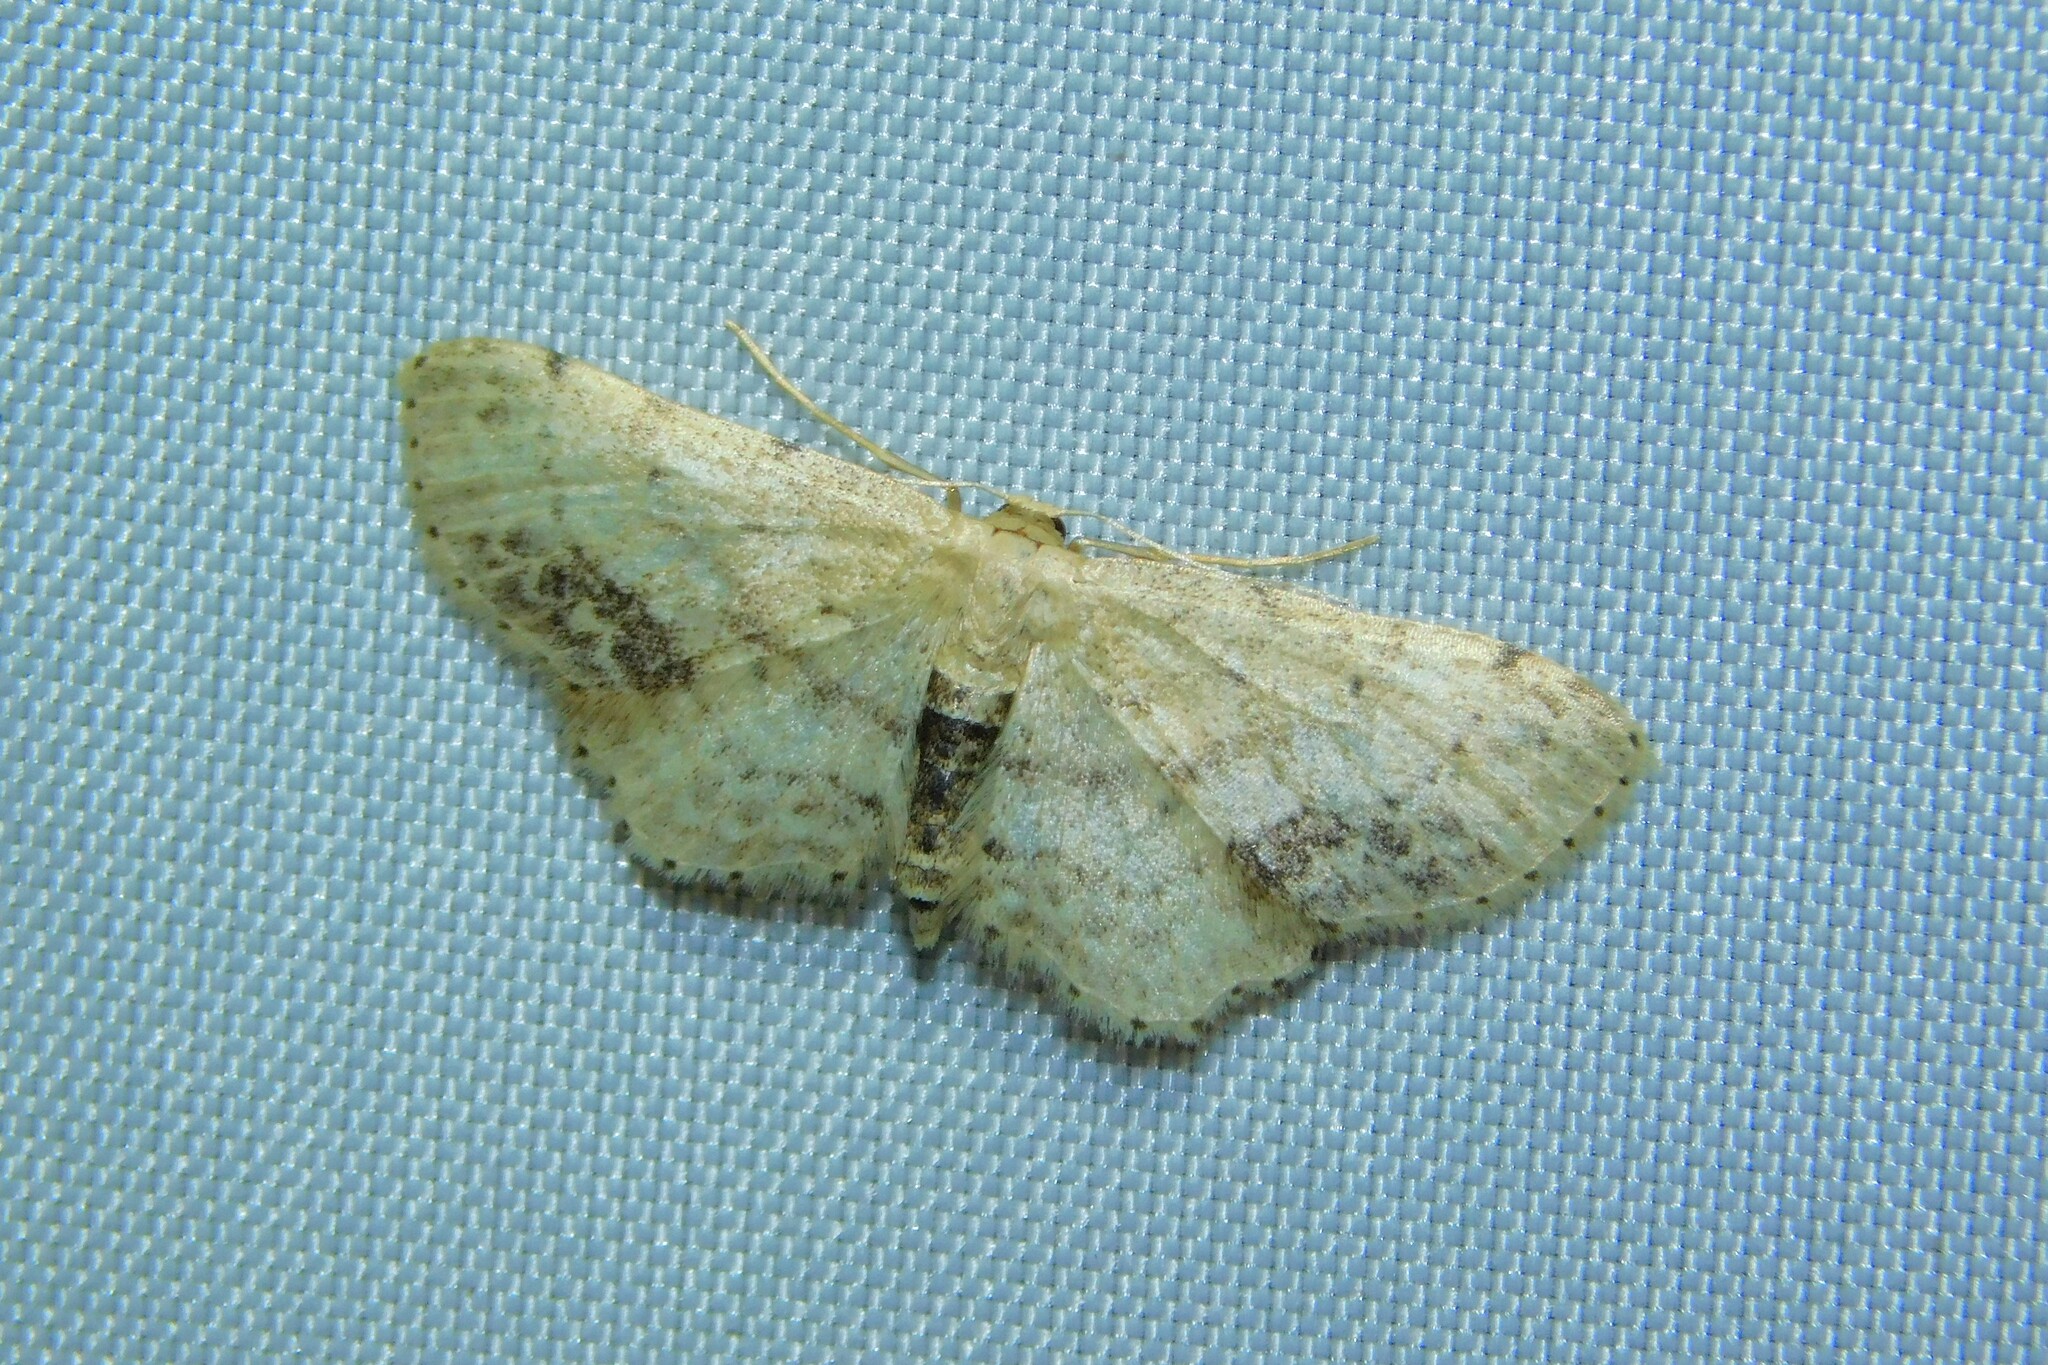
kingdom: Animalia
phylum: Arthropoda
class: Insecta
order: Lepidoptera
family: Geometridae
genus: Idaea
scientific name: Idaea dimidiata
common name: Single-dotted wave
